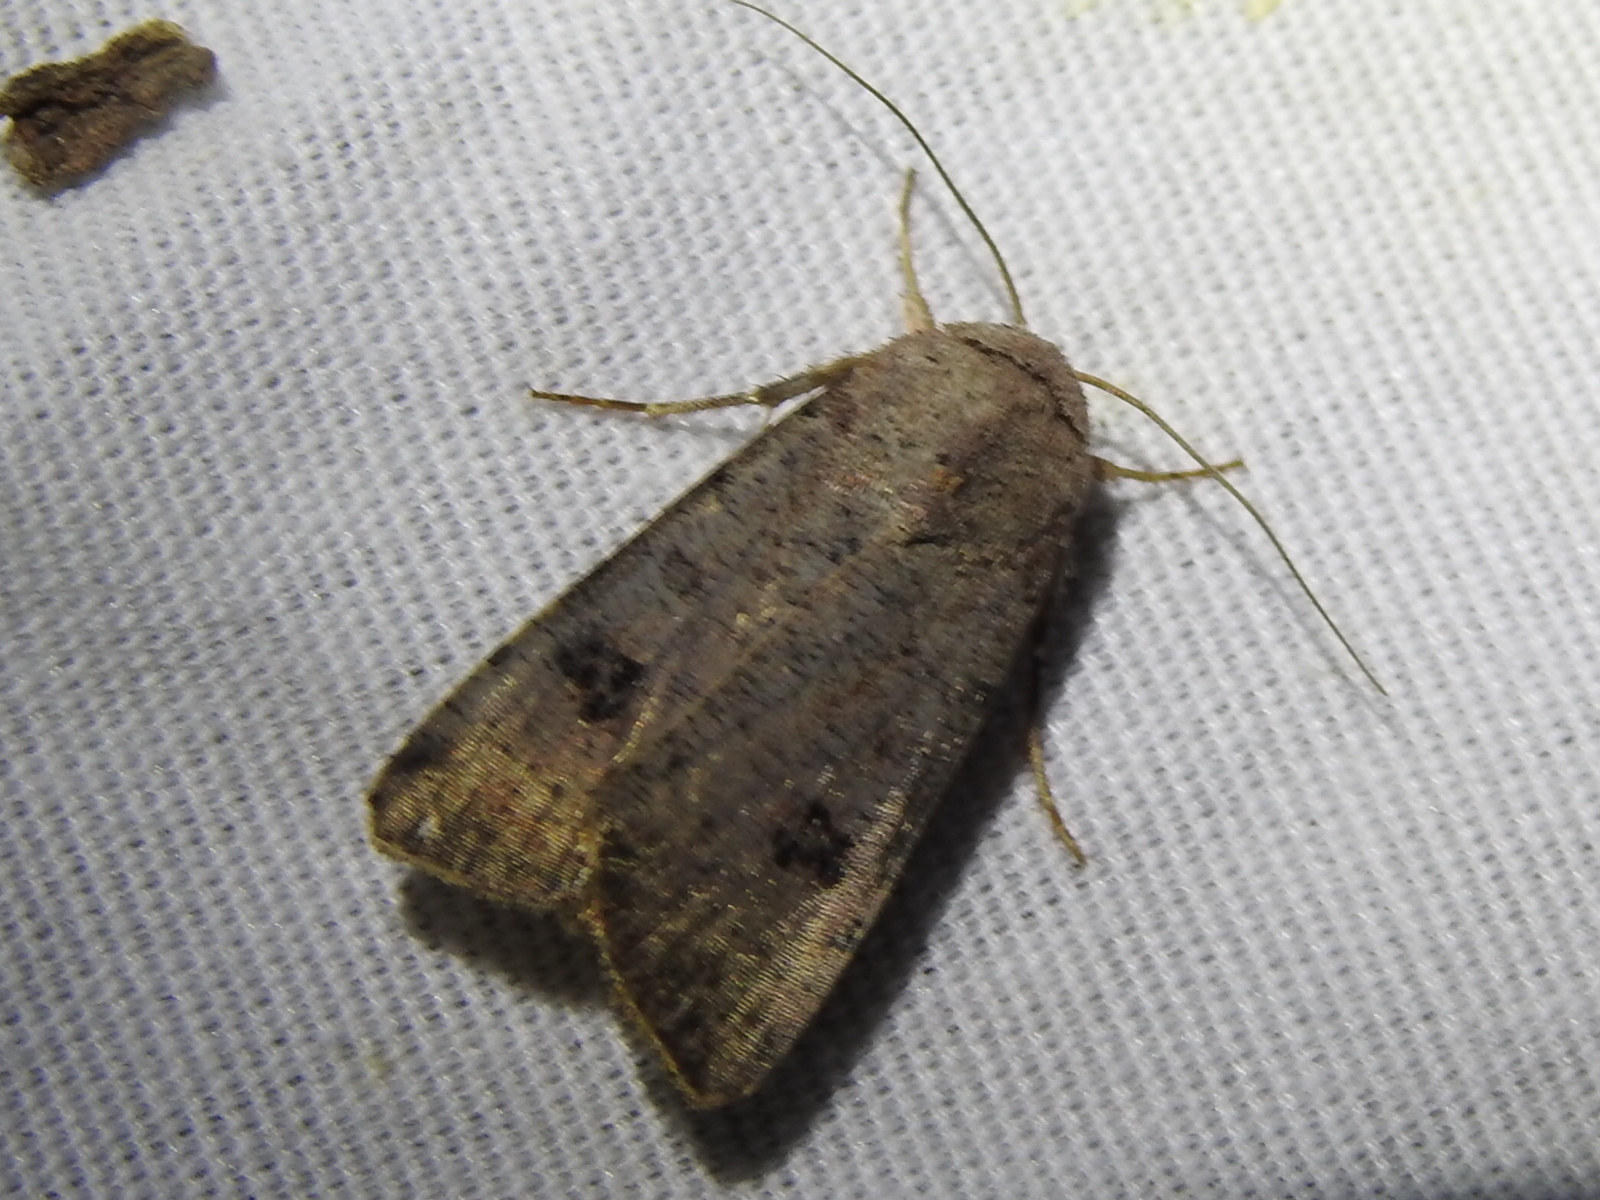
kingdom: Animalia
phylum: Arthropoda
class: Insecta
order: Lepidoptera
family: Noctuidae
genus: Anicla
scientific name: Anicla infecta
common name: Green cutworm
